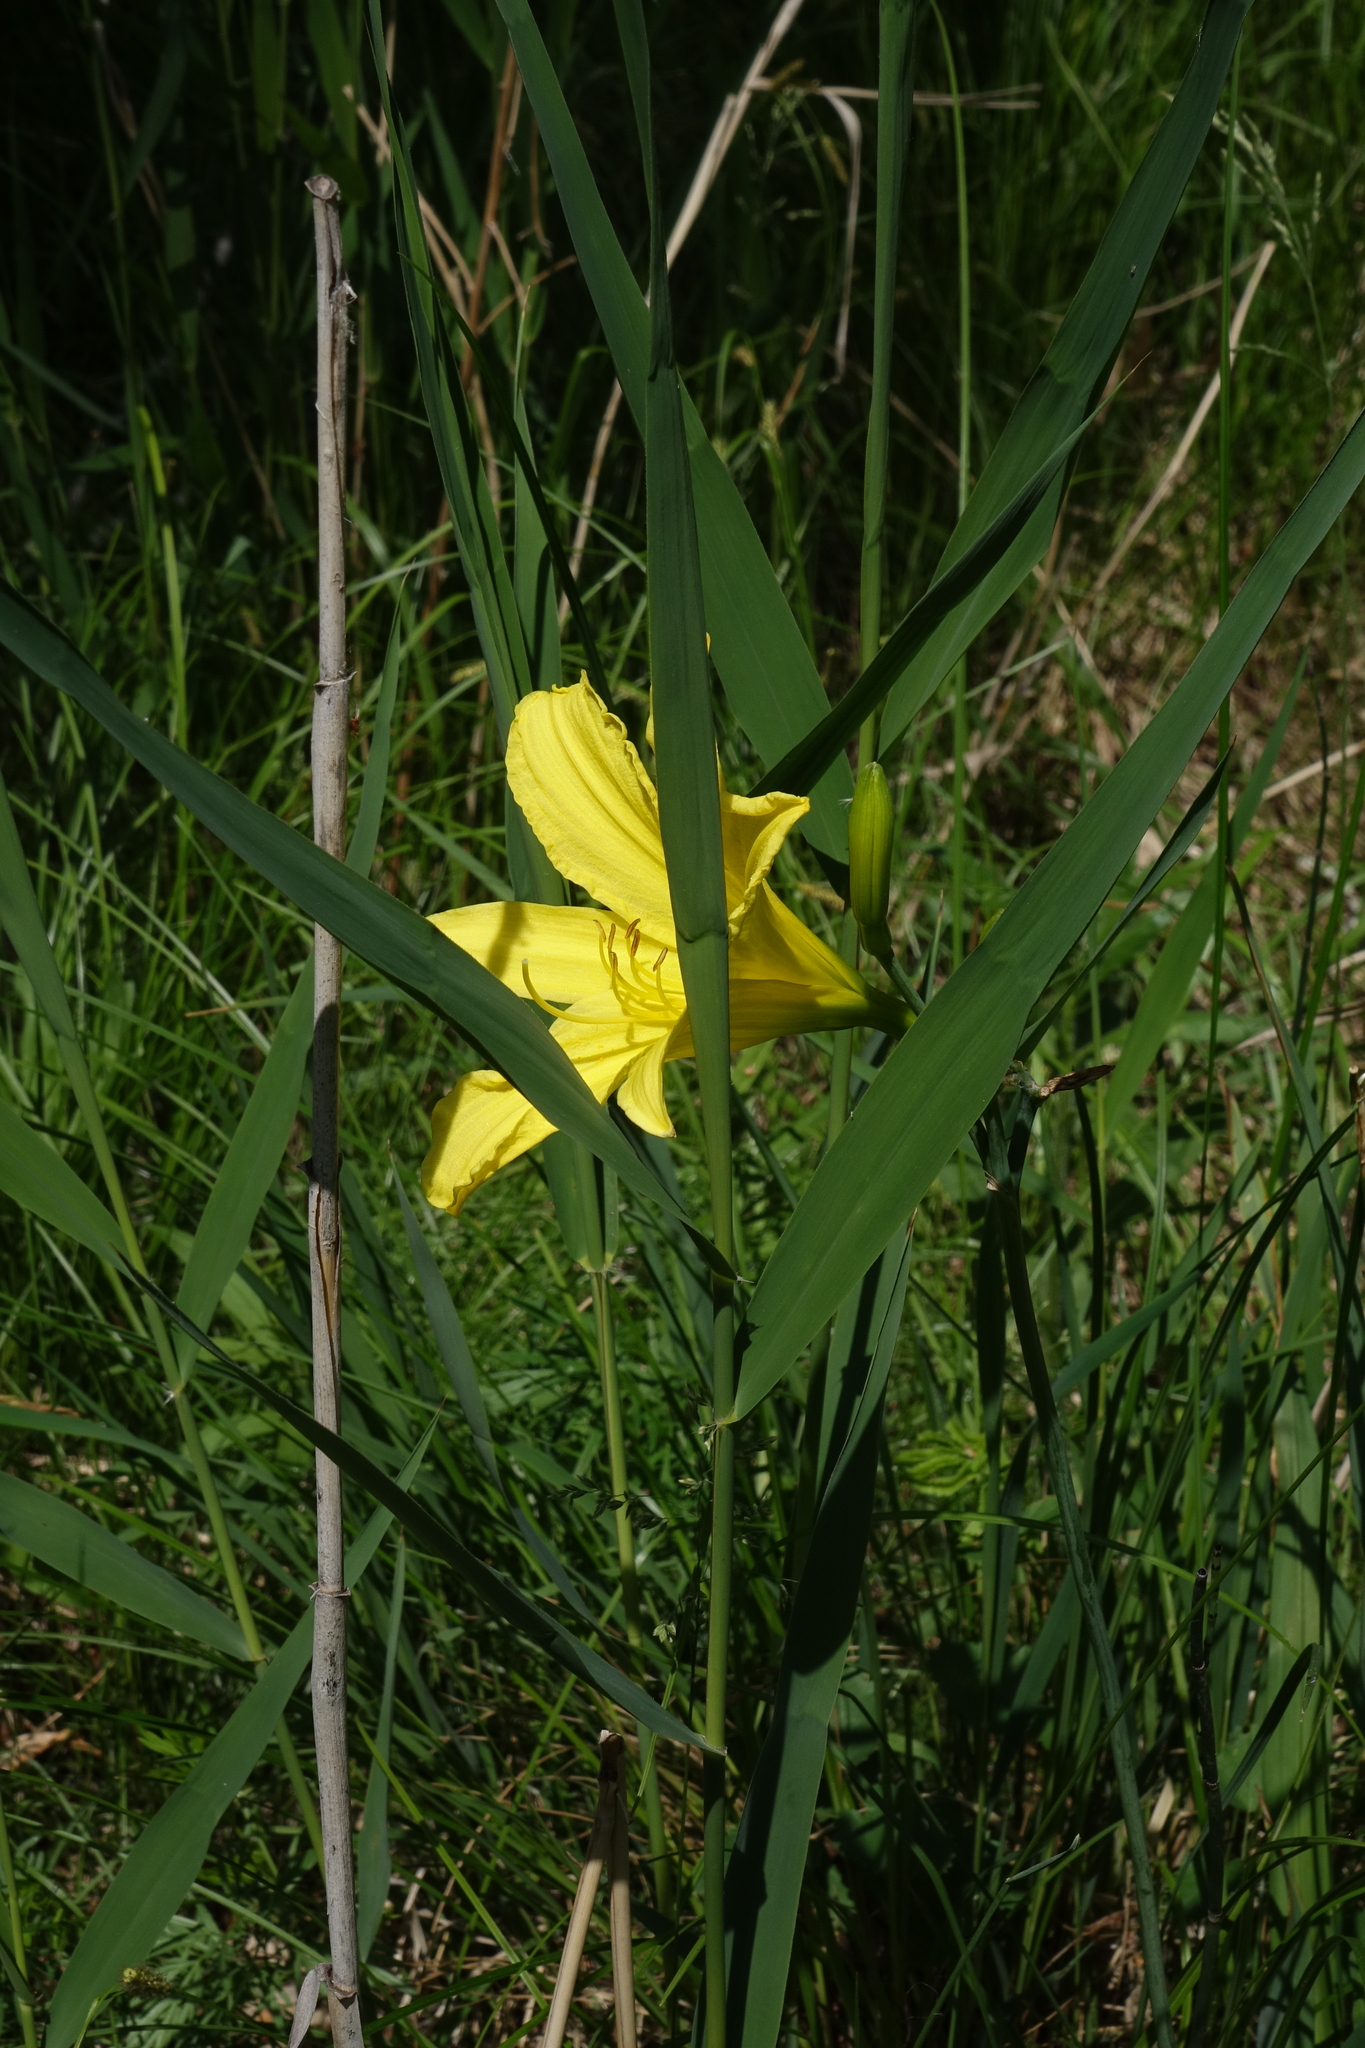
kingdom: Plantae
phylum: Tracheophyta
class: Liliopsida
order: Asparagales
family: Asphodelaceae
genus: Hemerocallis
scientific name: Hemerocallis minor
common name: Small daylily
